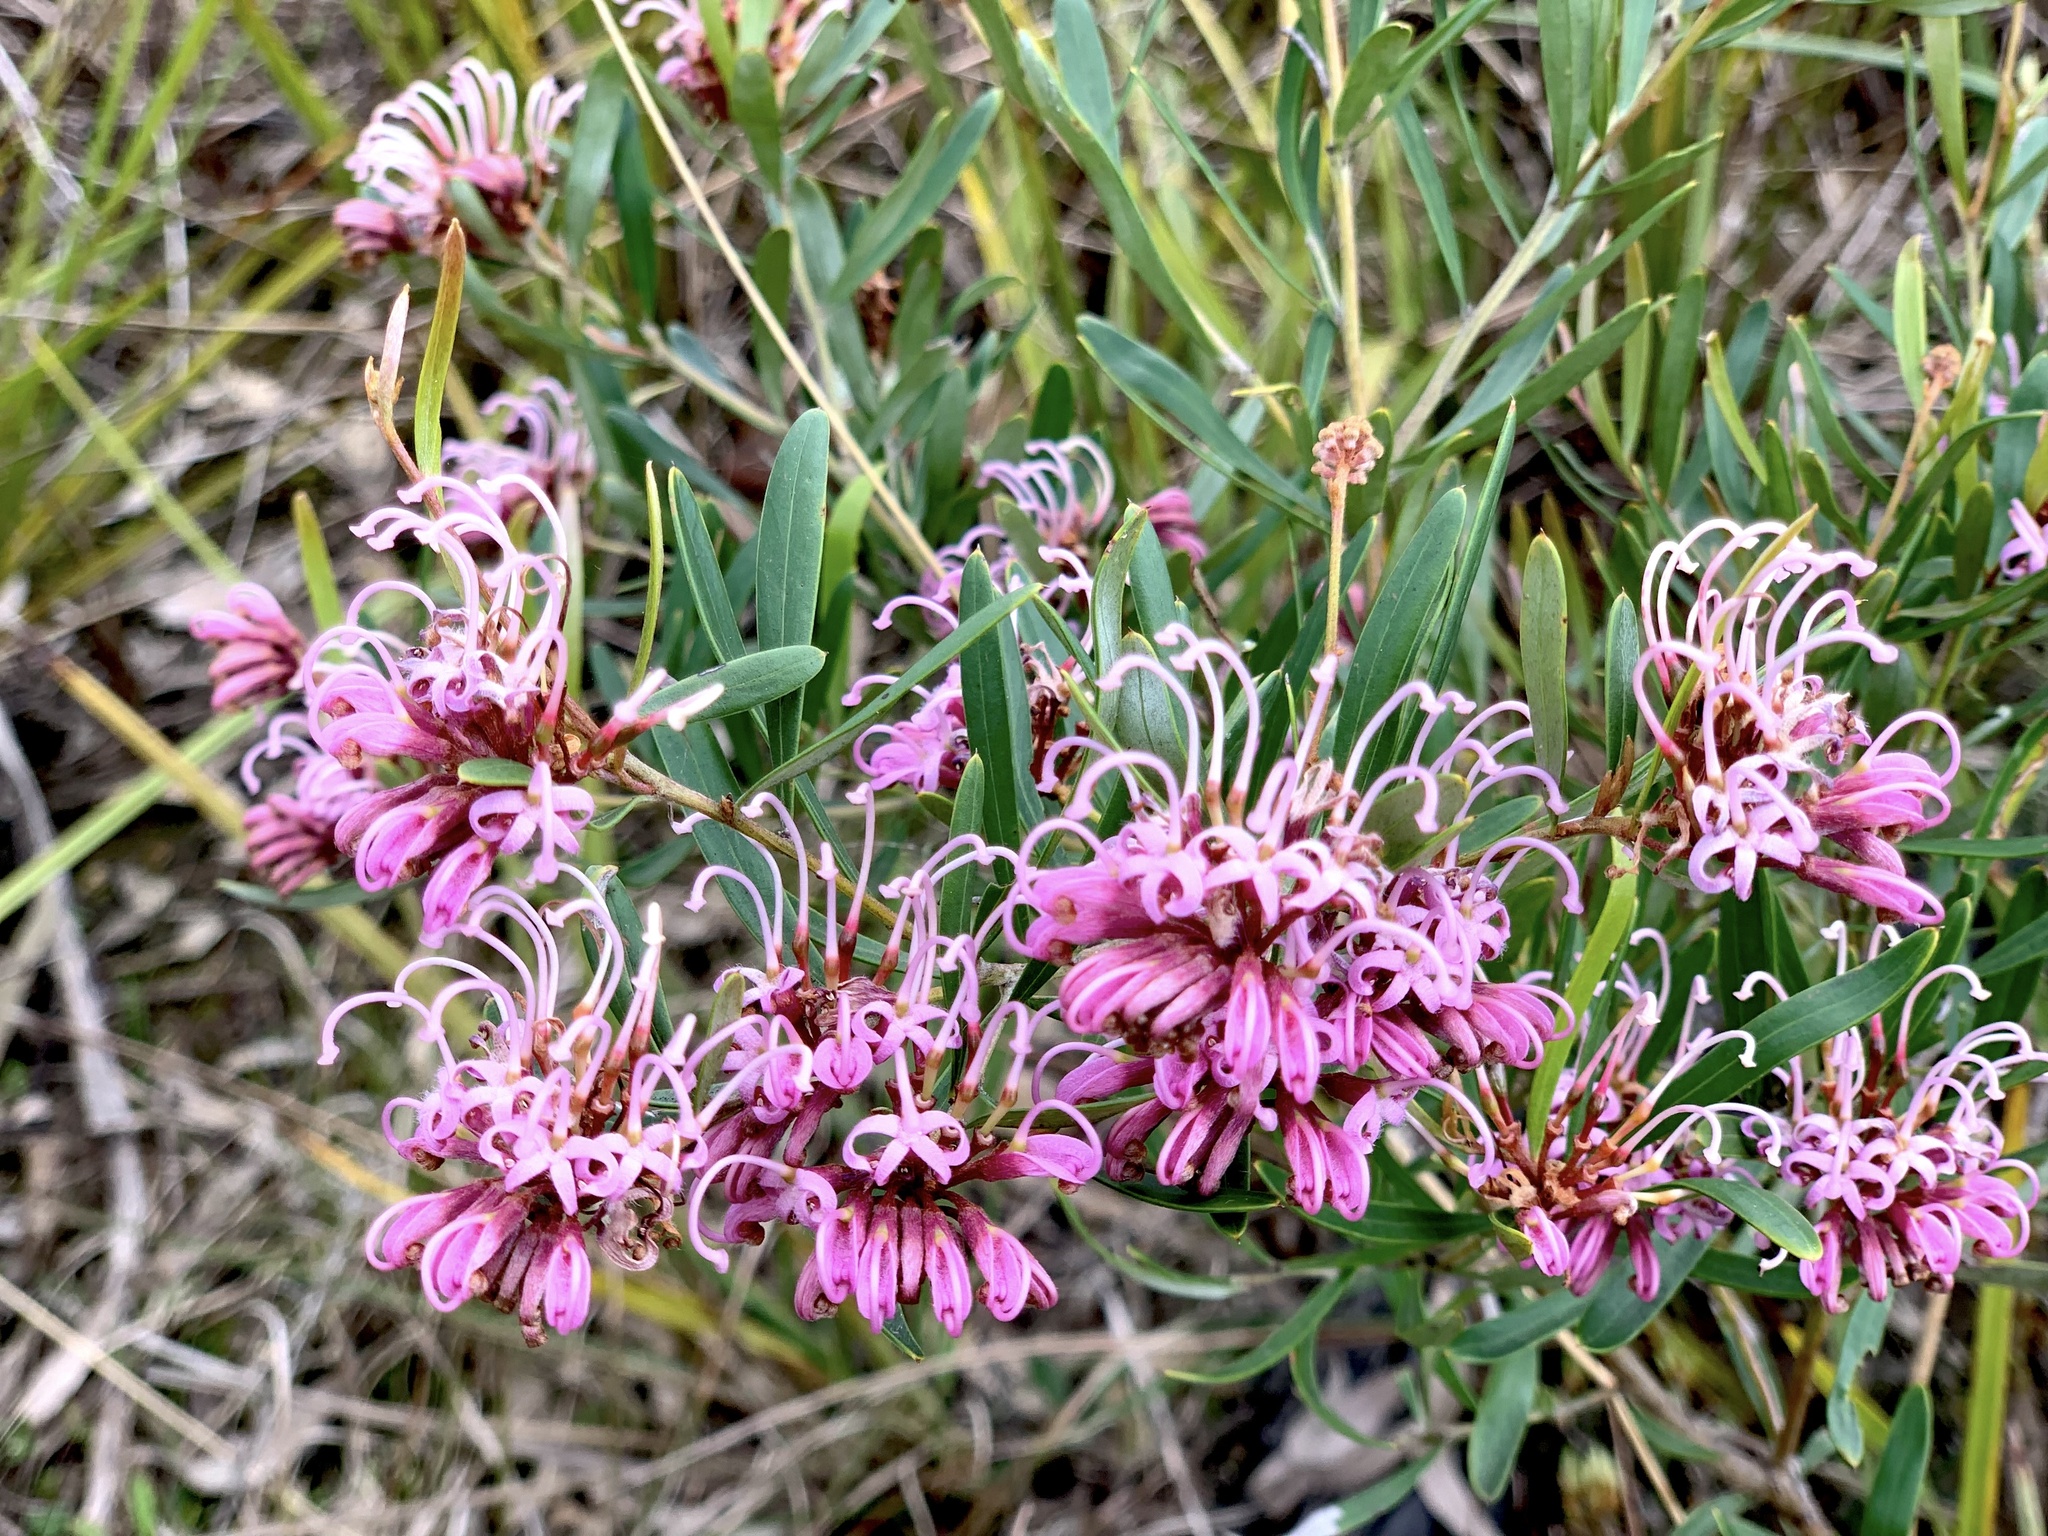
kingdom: Plantae
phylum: Tracheophyta
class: Magnoliopsida
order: Proteales
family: Proteaceae
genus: Grevillea
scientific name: Grevillea sericea
